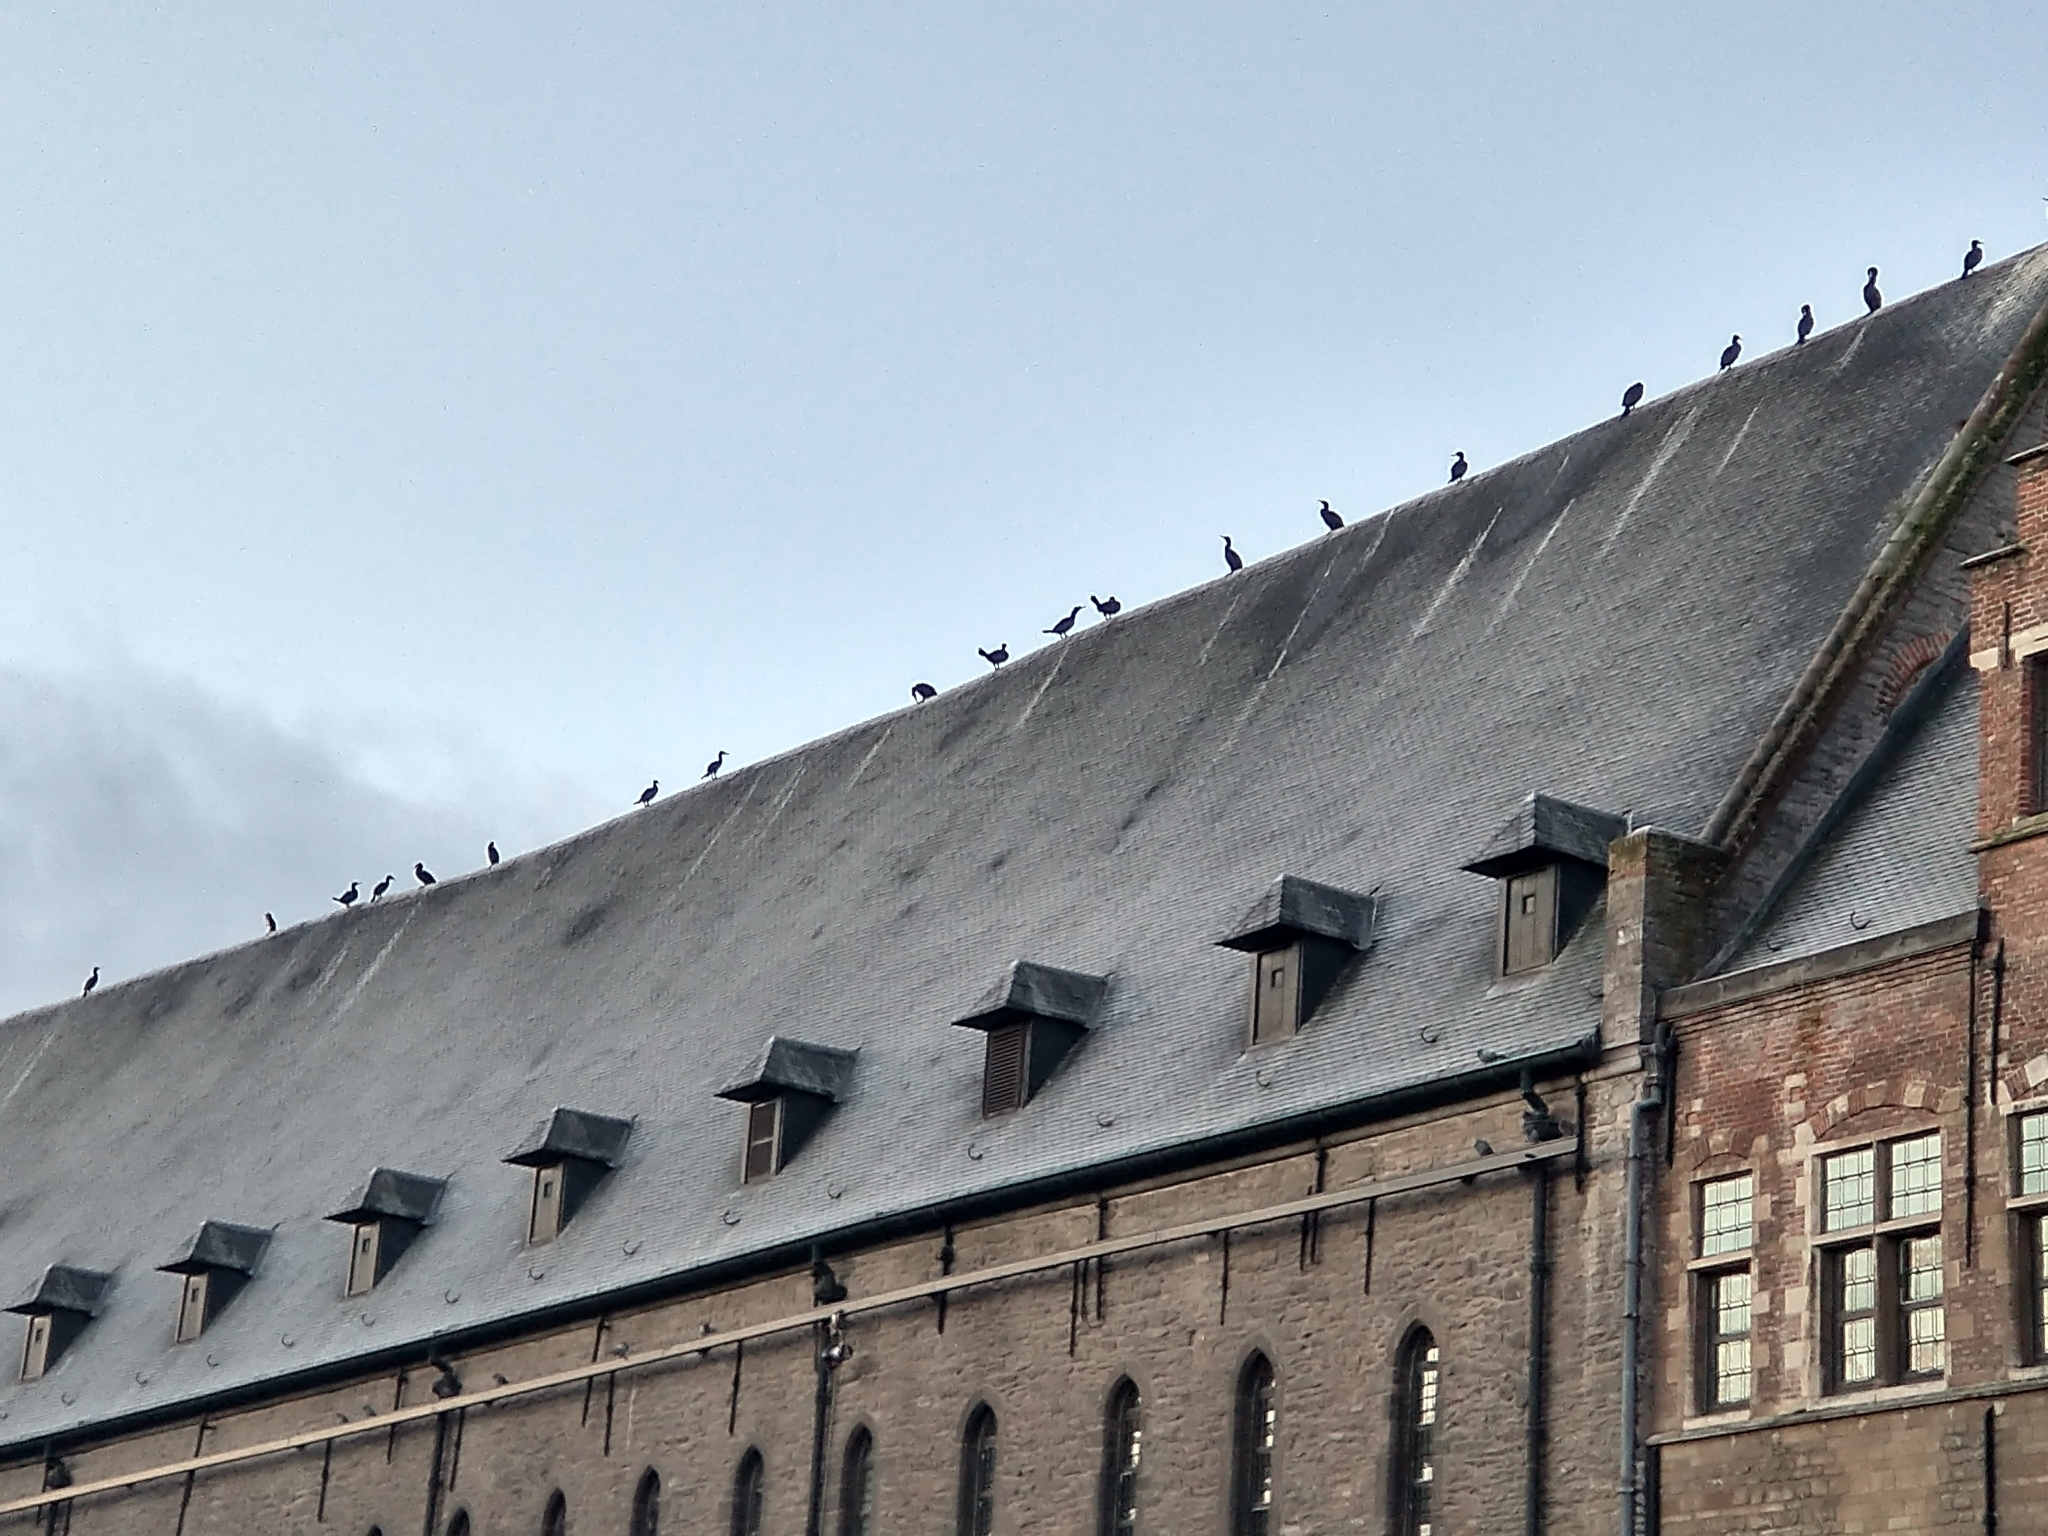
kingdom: Animalia
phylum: Chordata
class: Aves
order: Suliformes
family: Phalacrocoracidae
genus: Phalacrocorax
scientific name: Phalacrocorax carbo
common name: Great cormorant
